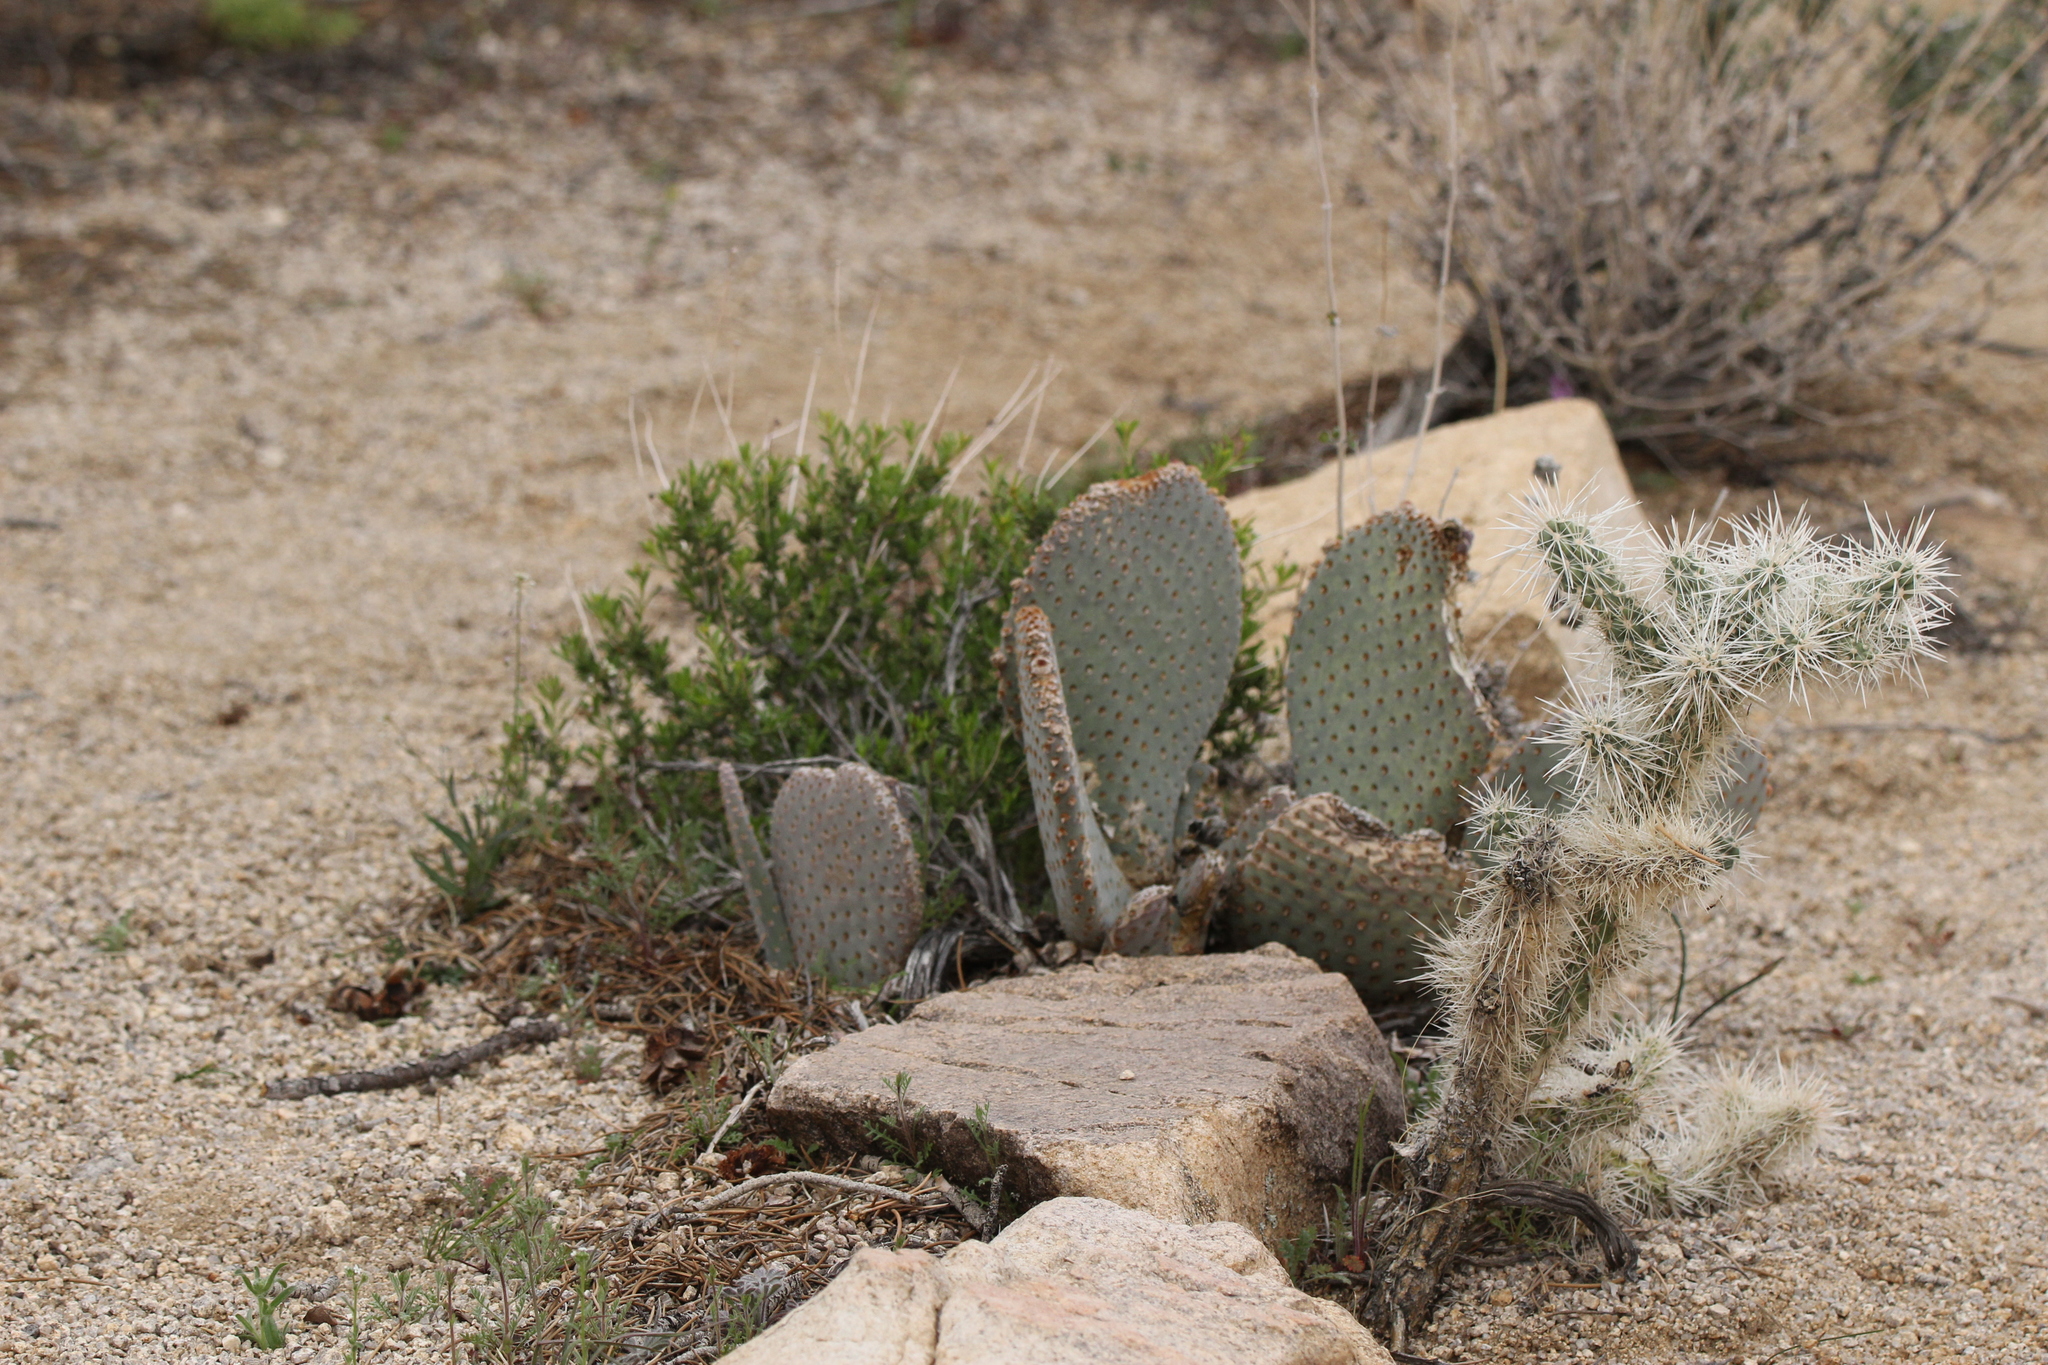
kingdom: Plantae
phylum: Tracheophyta
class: Magnoliopsida
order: Caryophyllales
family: Cactaceae
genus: Opuntia
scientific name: Opuntia basilaris
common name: Beavertail prickly-pear
